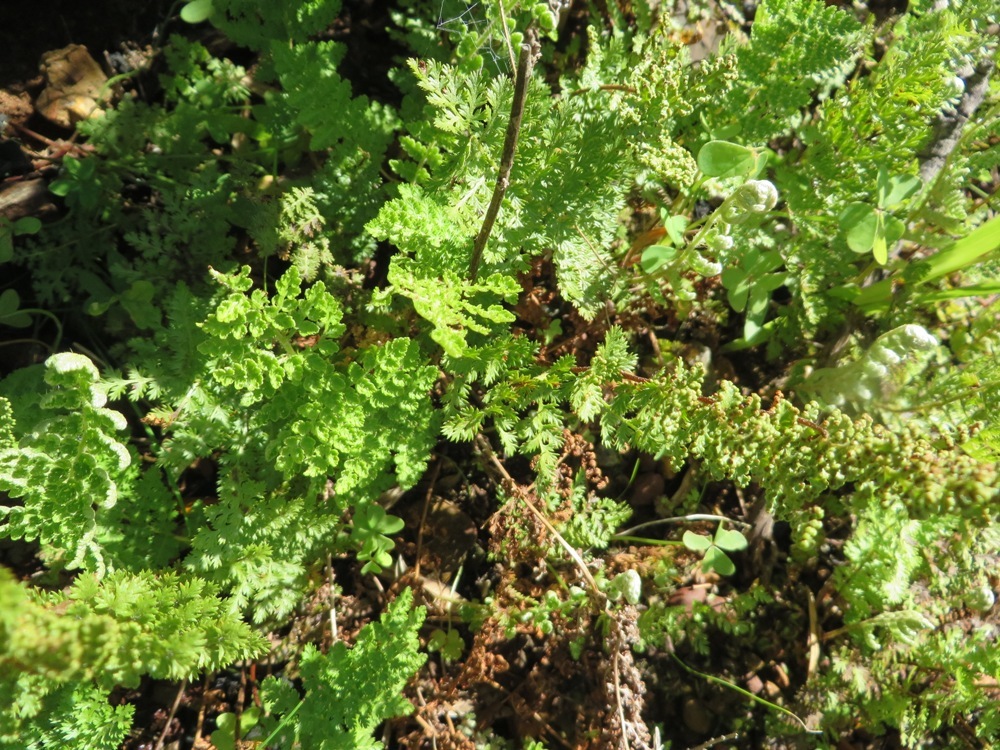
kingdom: Plantae
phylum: Tracheophyta
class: Polypodiopsida
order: Schizaeales
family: Anemiaceae
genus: Anemia
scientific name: Anemia caffrorum
